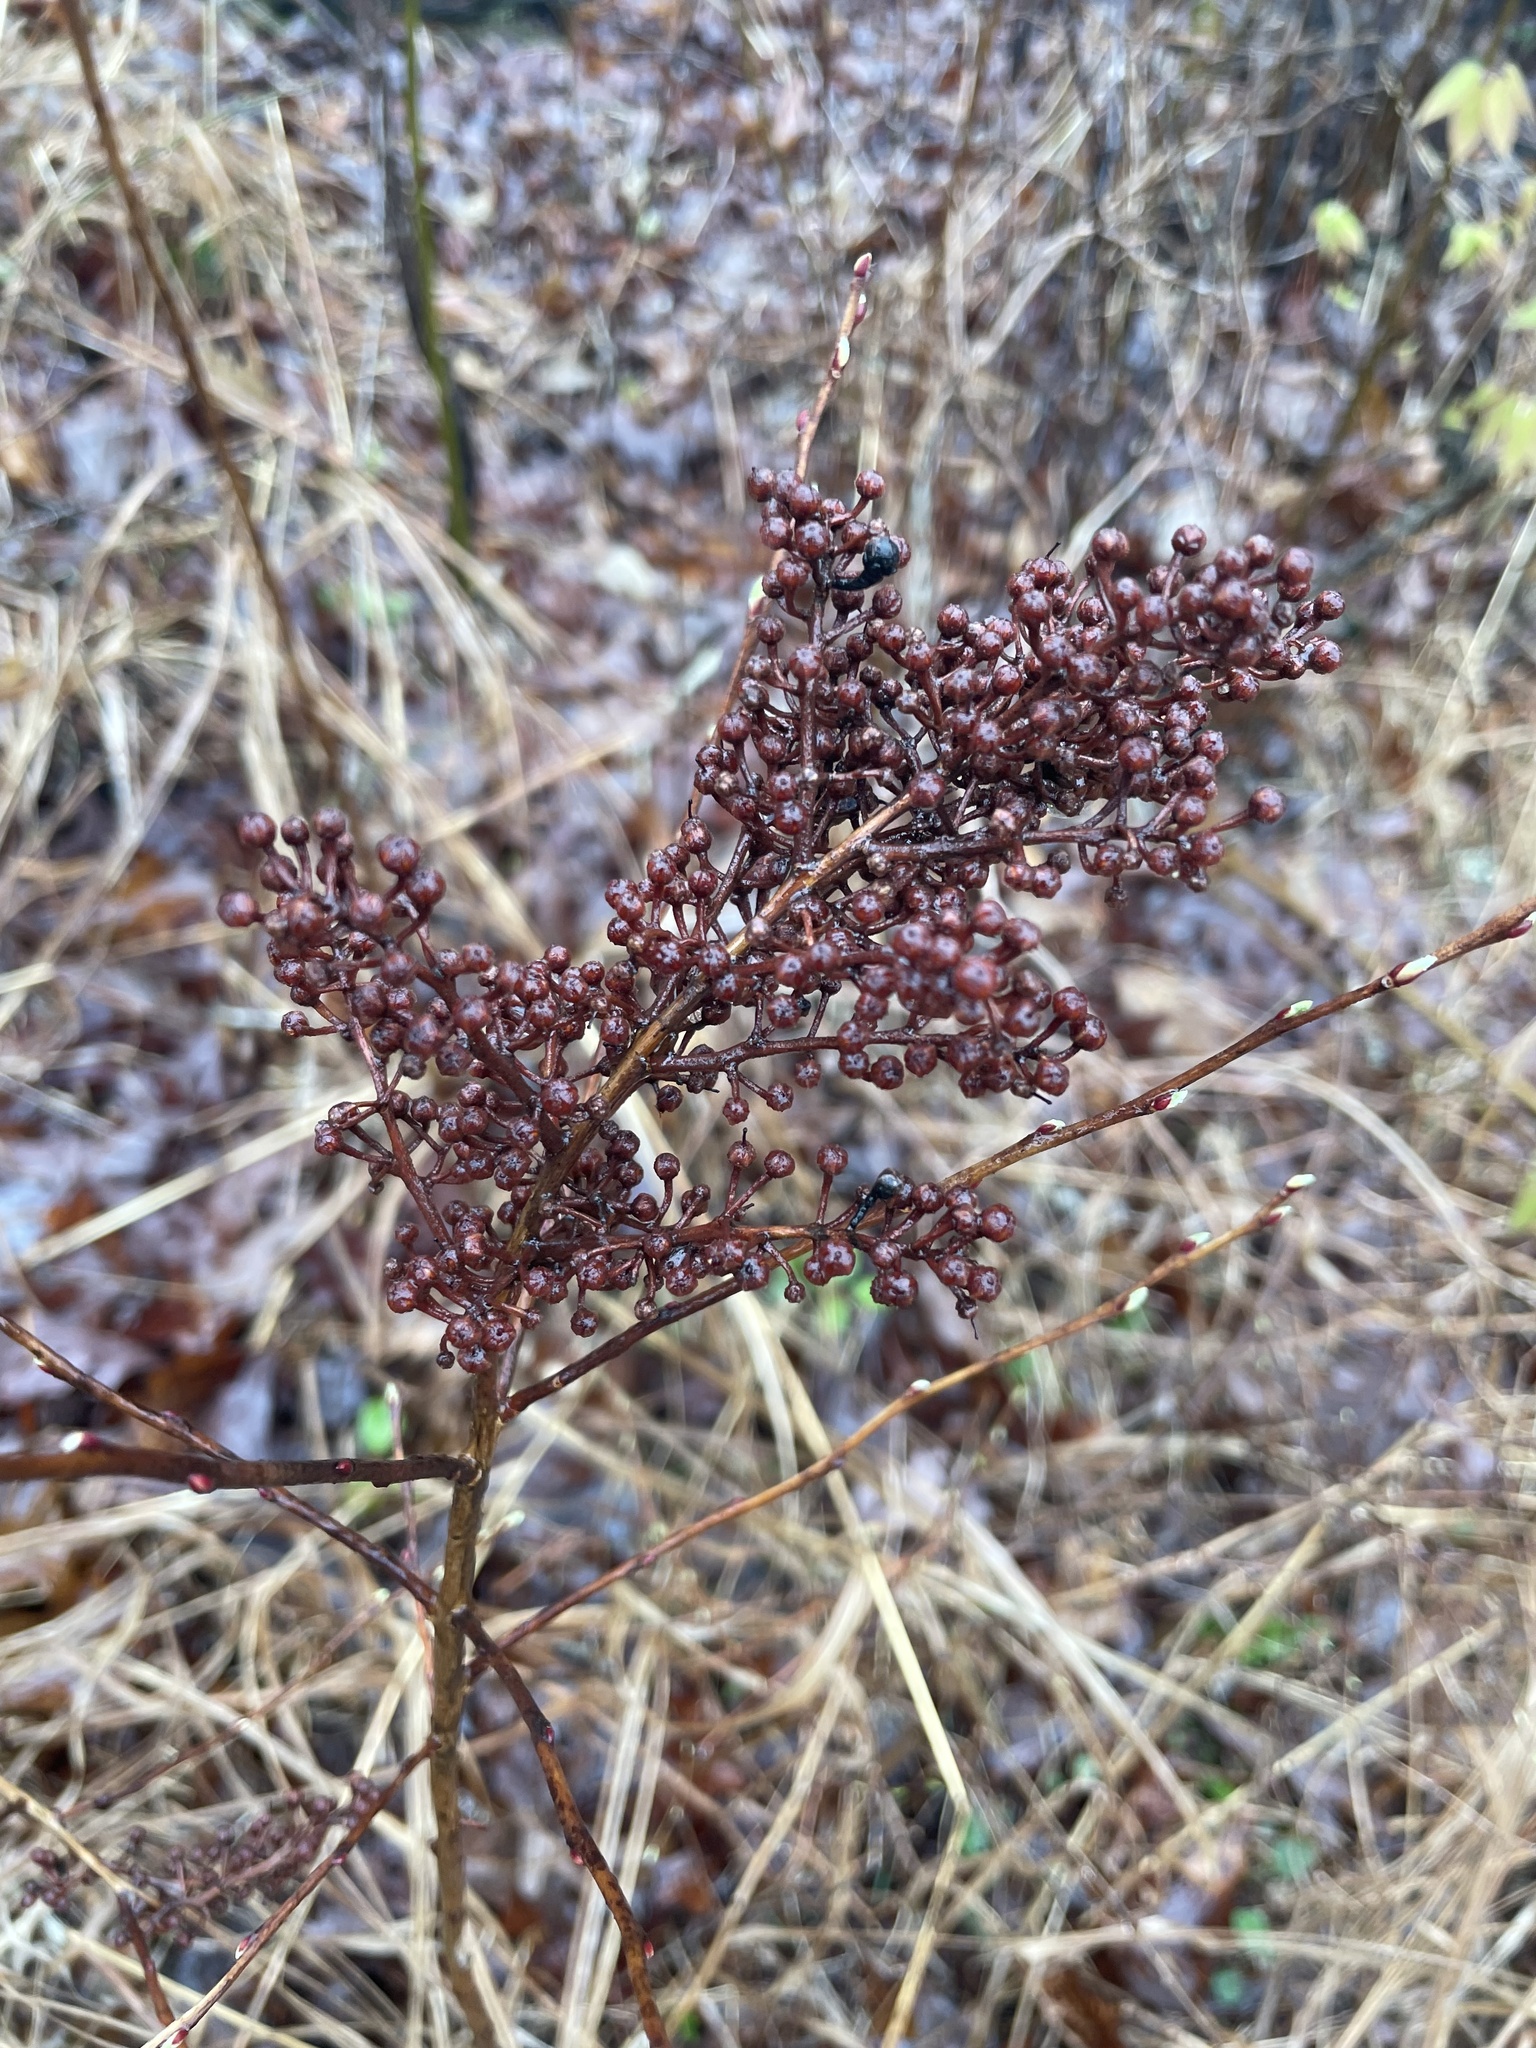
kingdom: Plantae
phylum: Tracheophyta
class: Magnoliopsida
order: Ericales
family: Ericaceae
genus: Lyonia
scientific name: Lyonia ligustrina
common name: Maleberry
